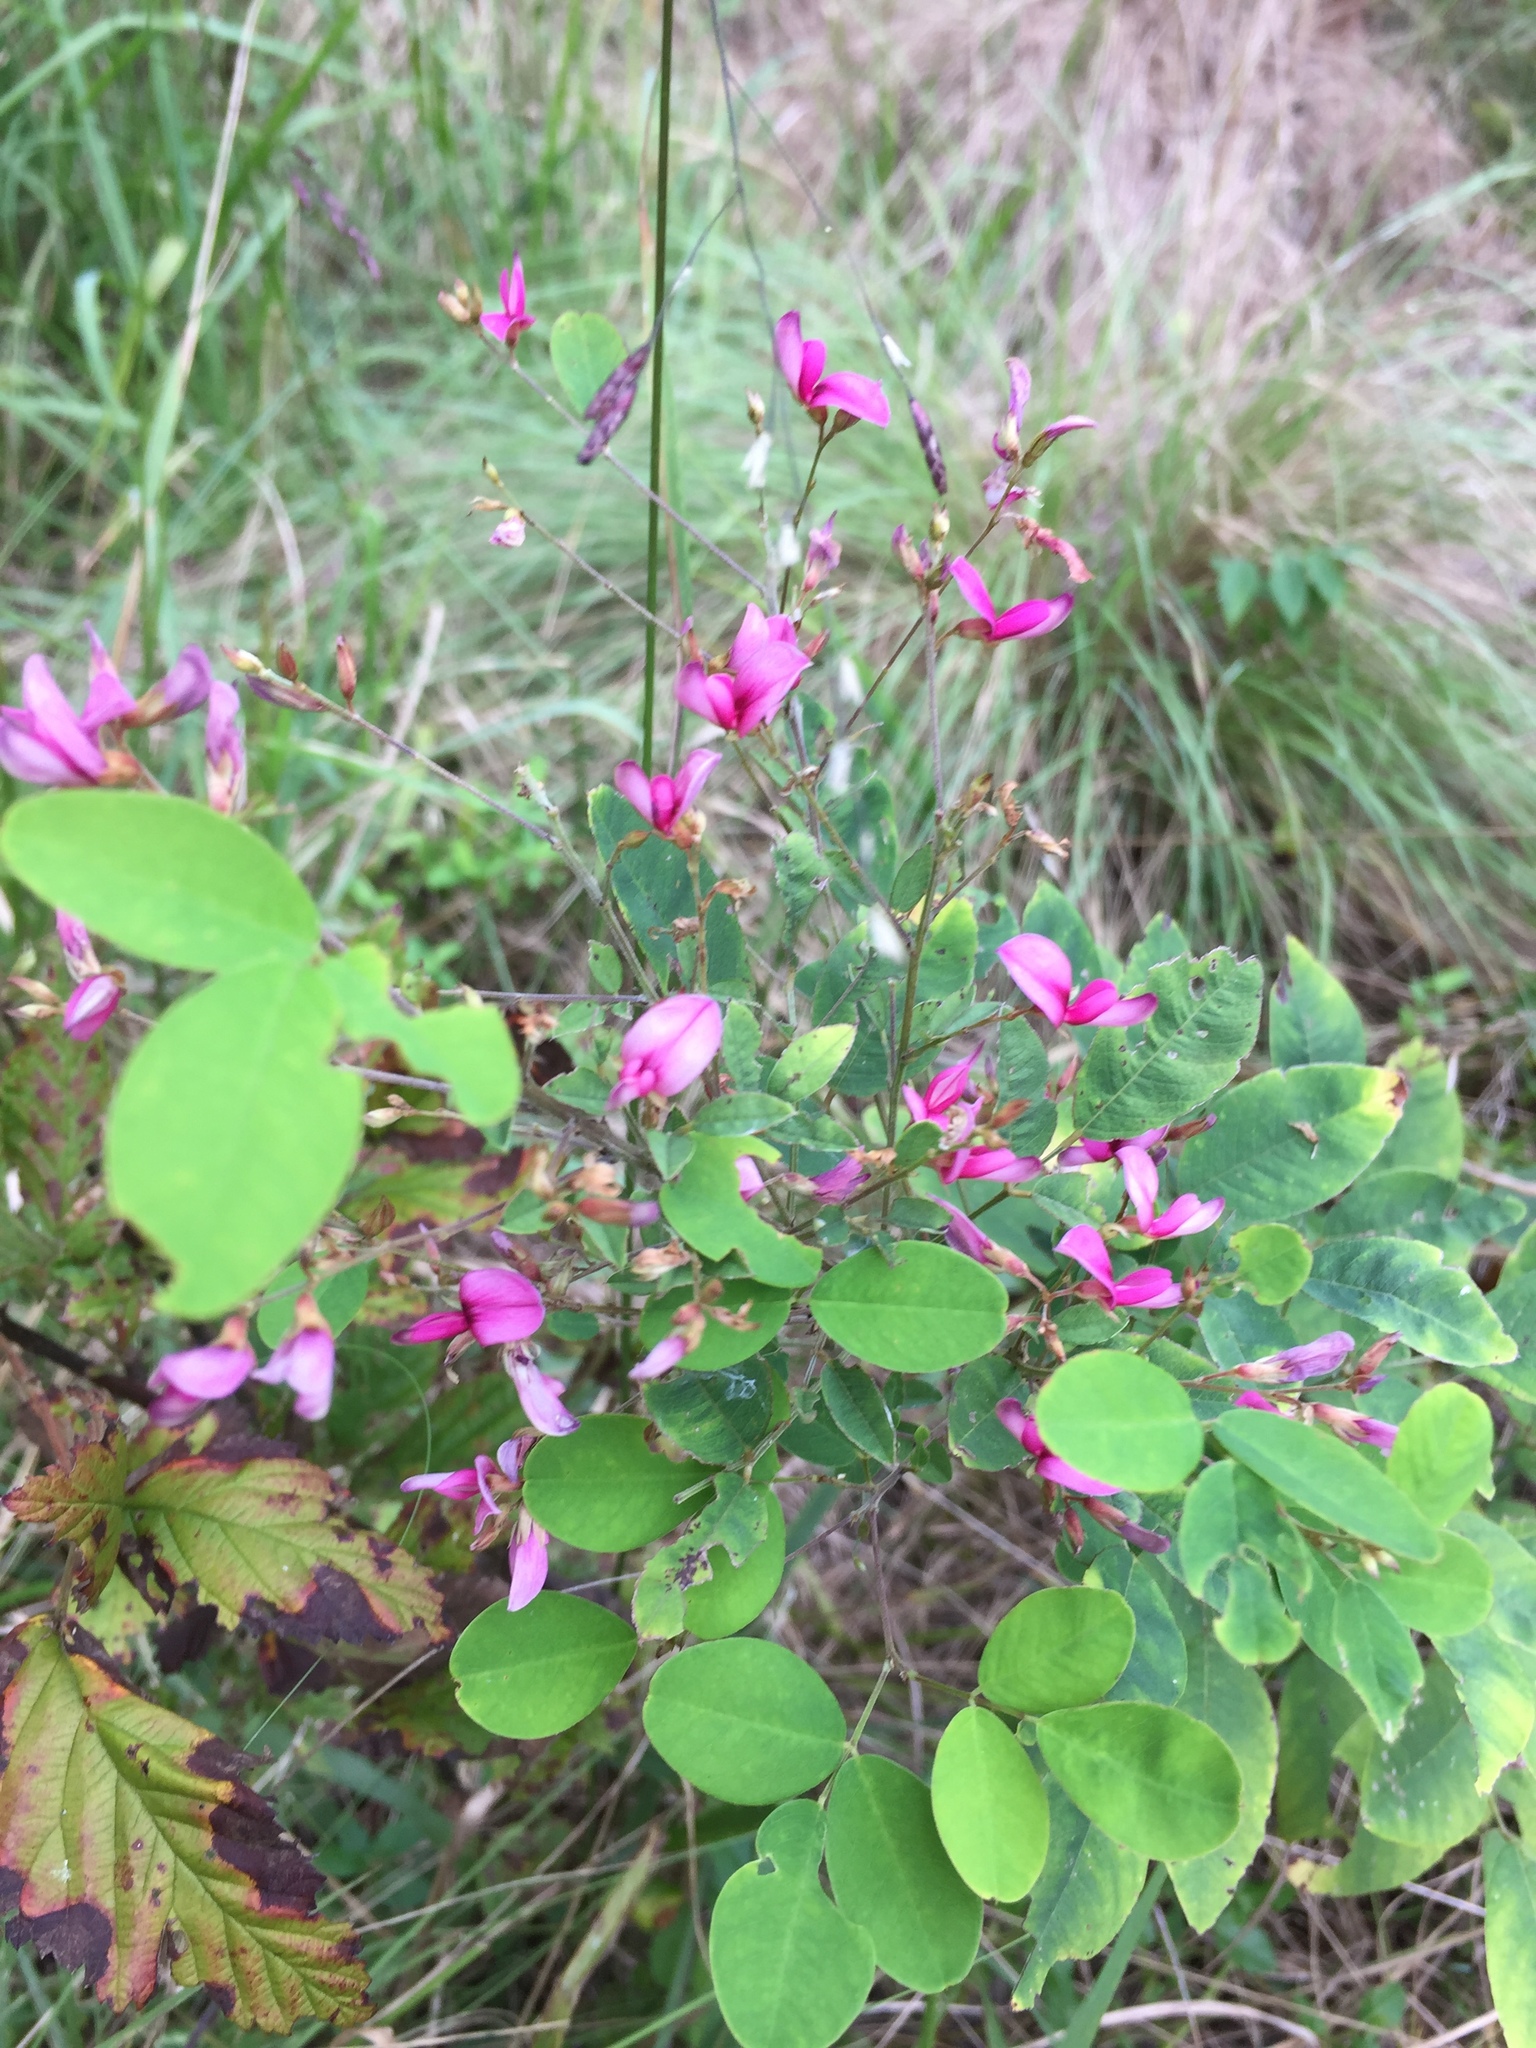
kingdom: Plantae
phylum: Tracheophyta
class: Magnoliopsida
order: Fabales
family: Fabaceae
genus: Lespedeza
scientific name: Lespedeza bicolor
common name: Shrub lespedeza
